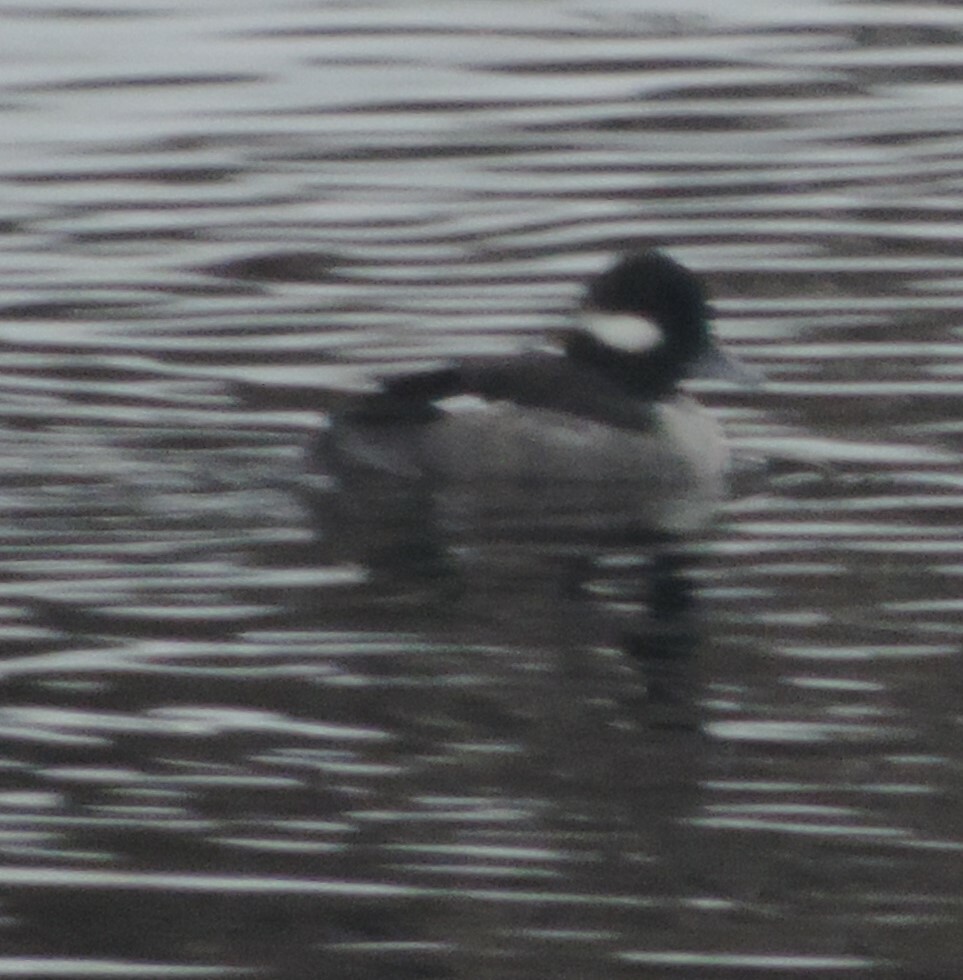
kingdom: Animalia
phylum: Chordata
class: Aves
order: Anseriformes
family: Anatidae
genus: Bucephala
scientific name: Bucephala albeola
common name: Bufflehead
